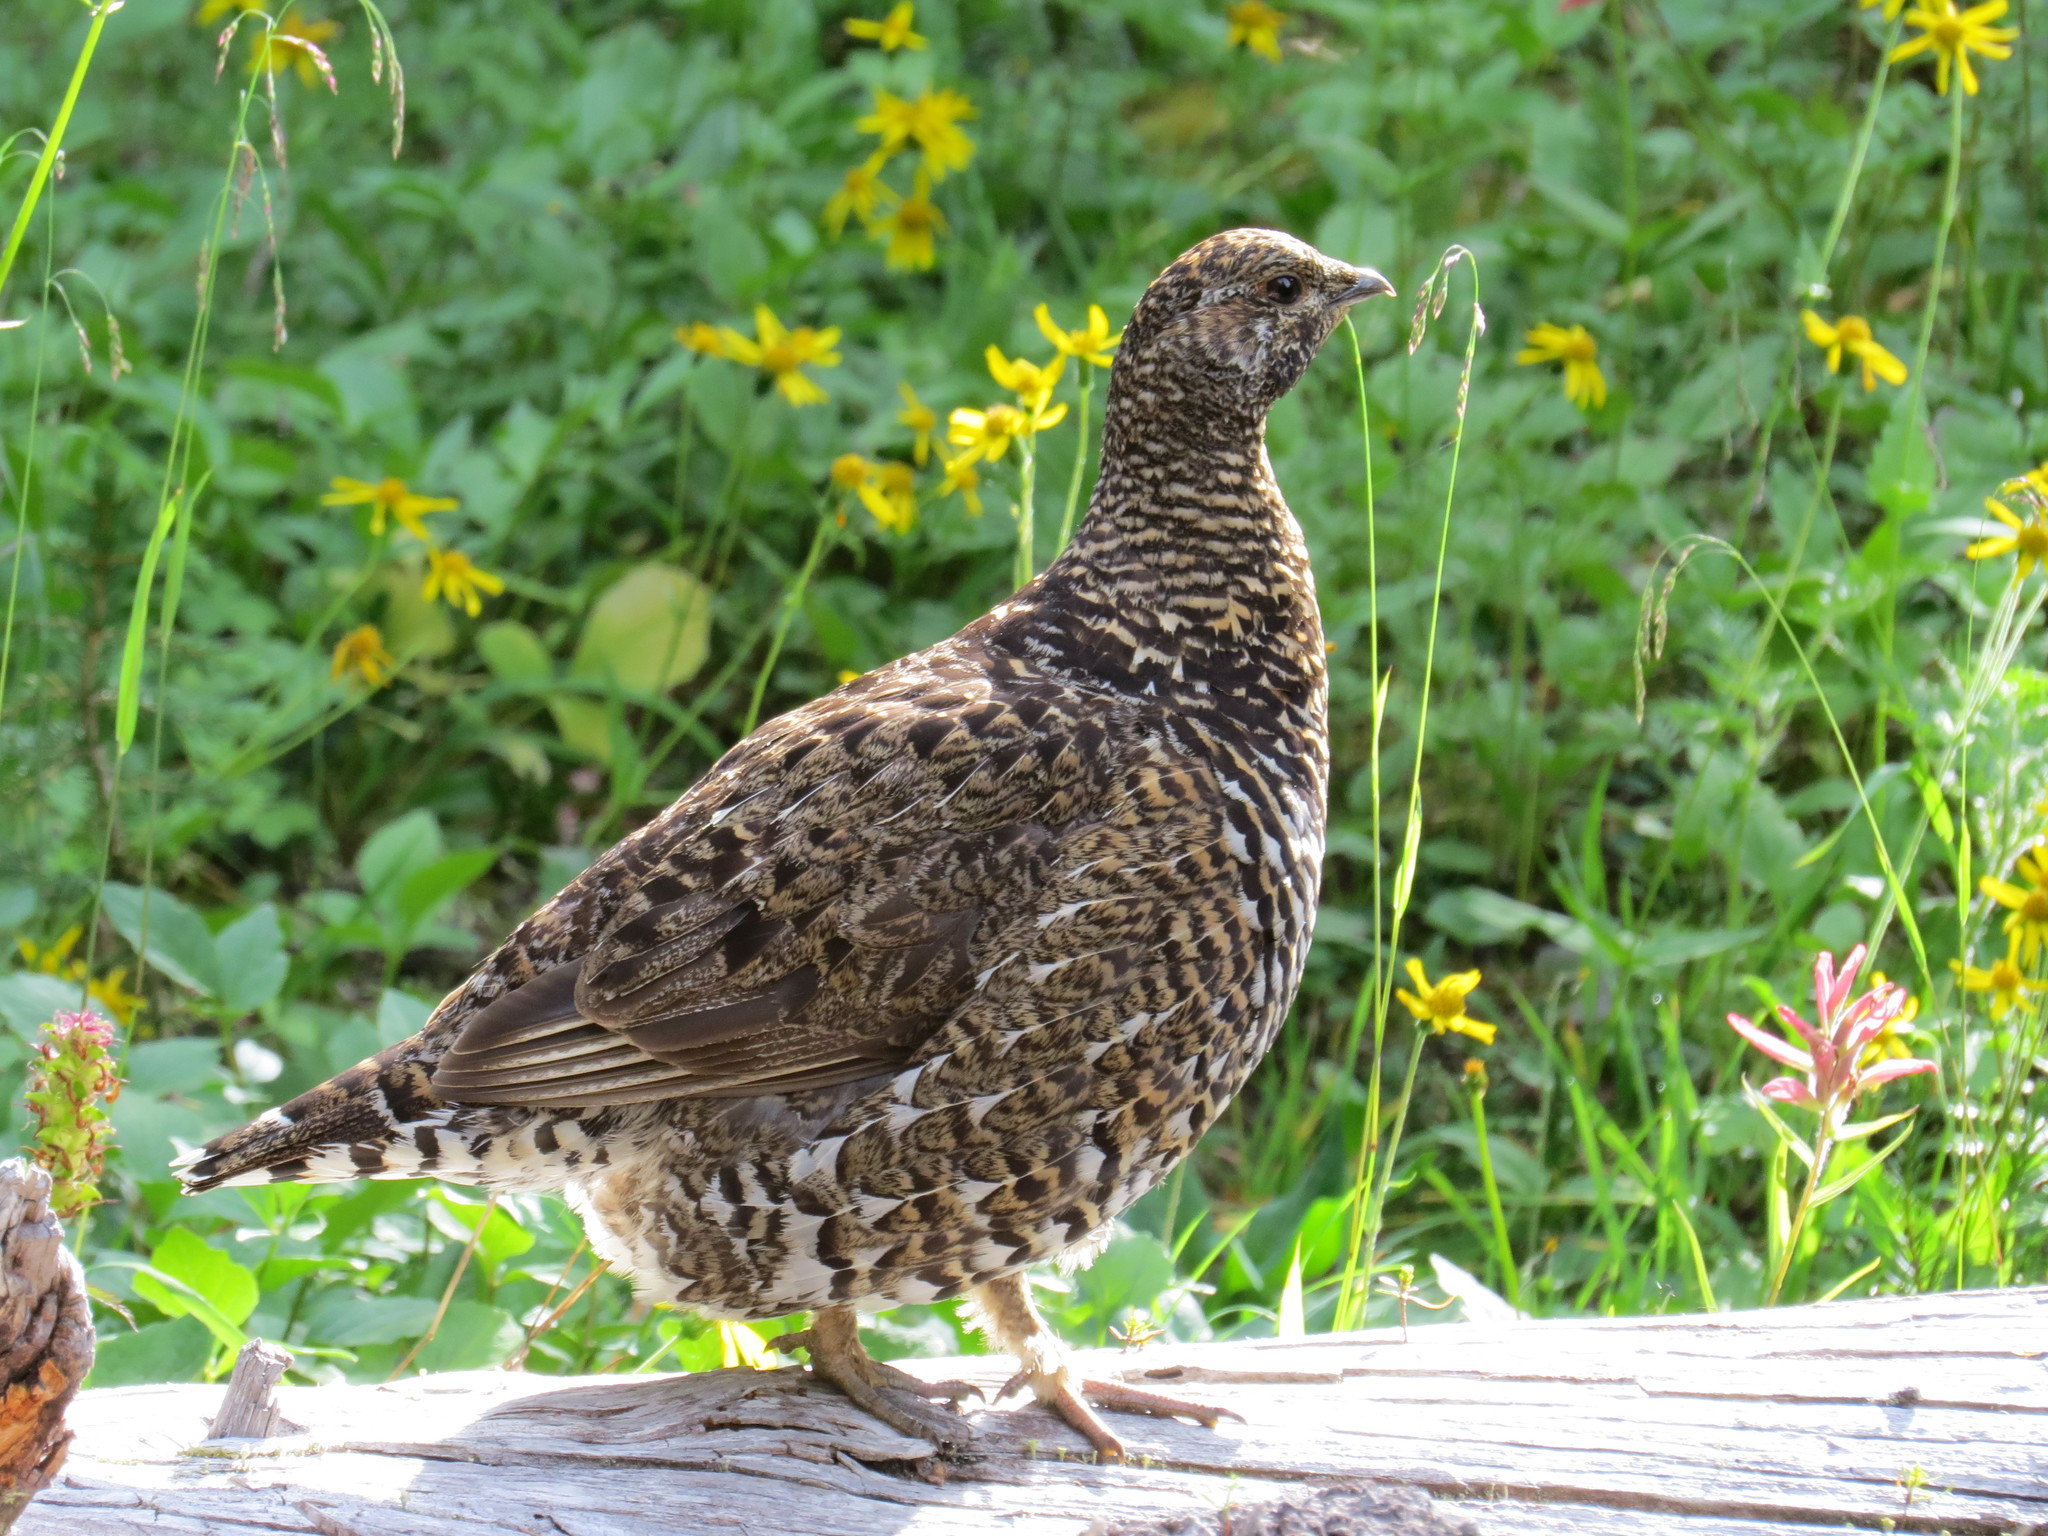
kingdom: Animalia
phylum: Chordata
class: Aves
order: Galliformes
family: Phasianidae
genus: Canachites
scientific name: Canachites canadensis
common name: Spruce grouse
